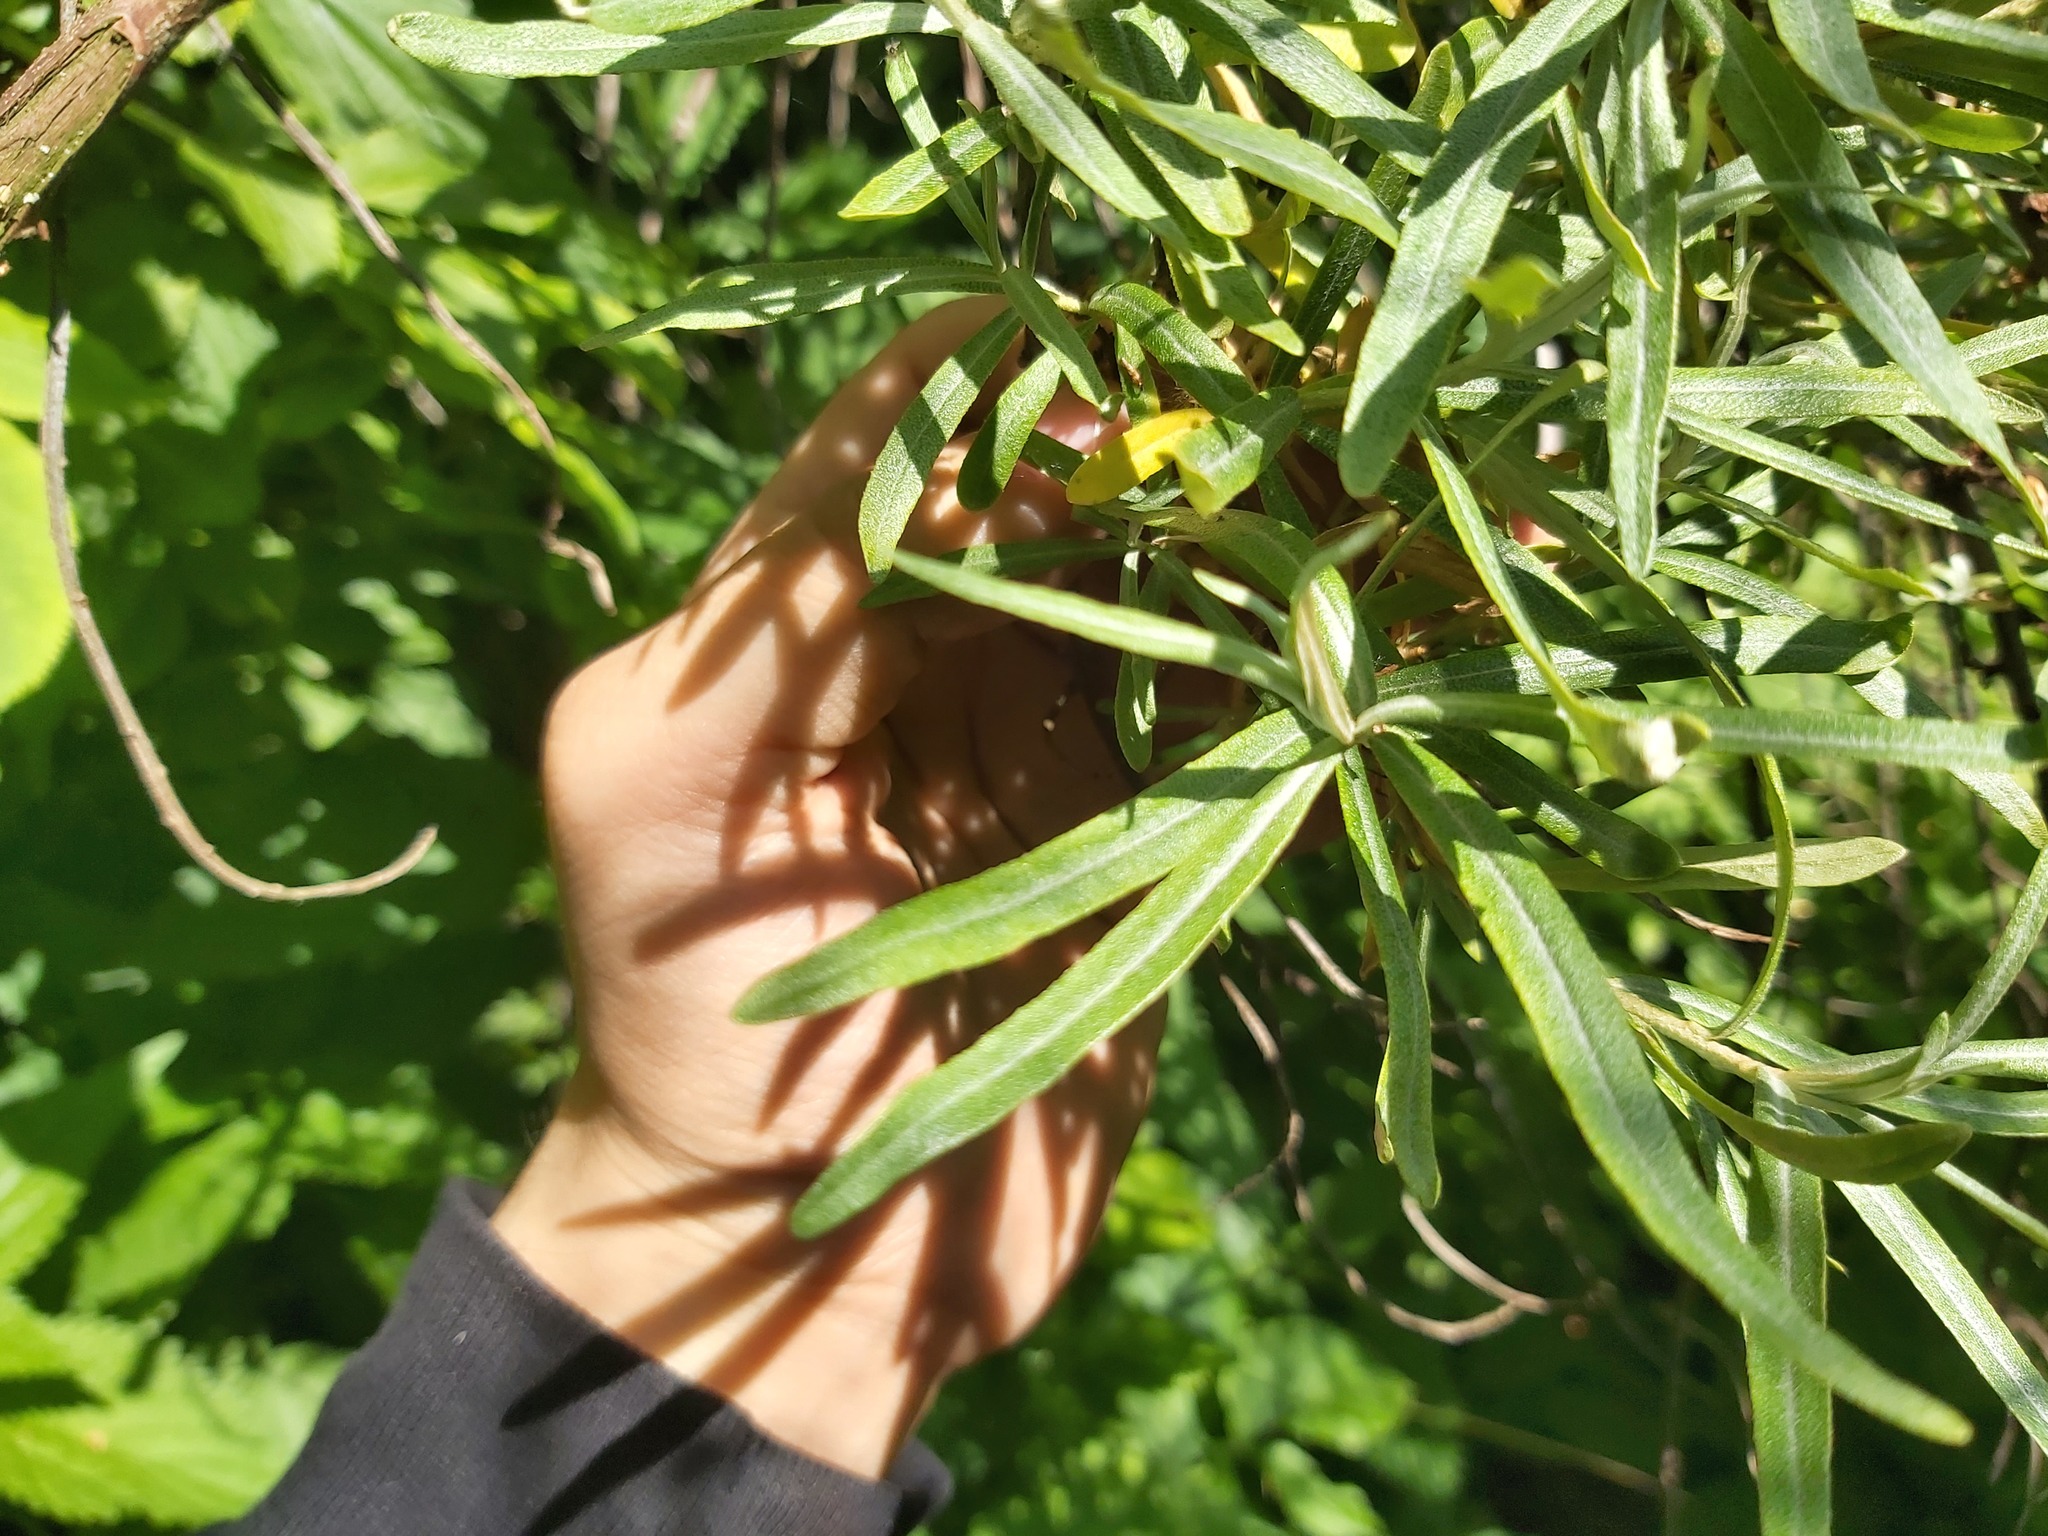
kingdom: Plantae
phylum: Tracheophyta
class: Magnoliopsida
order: Rosales
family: Elaeagnaceae
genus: Hippophae
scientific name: Hippophae rhamnoides
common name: Sea-buckthorn
